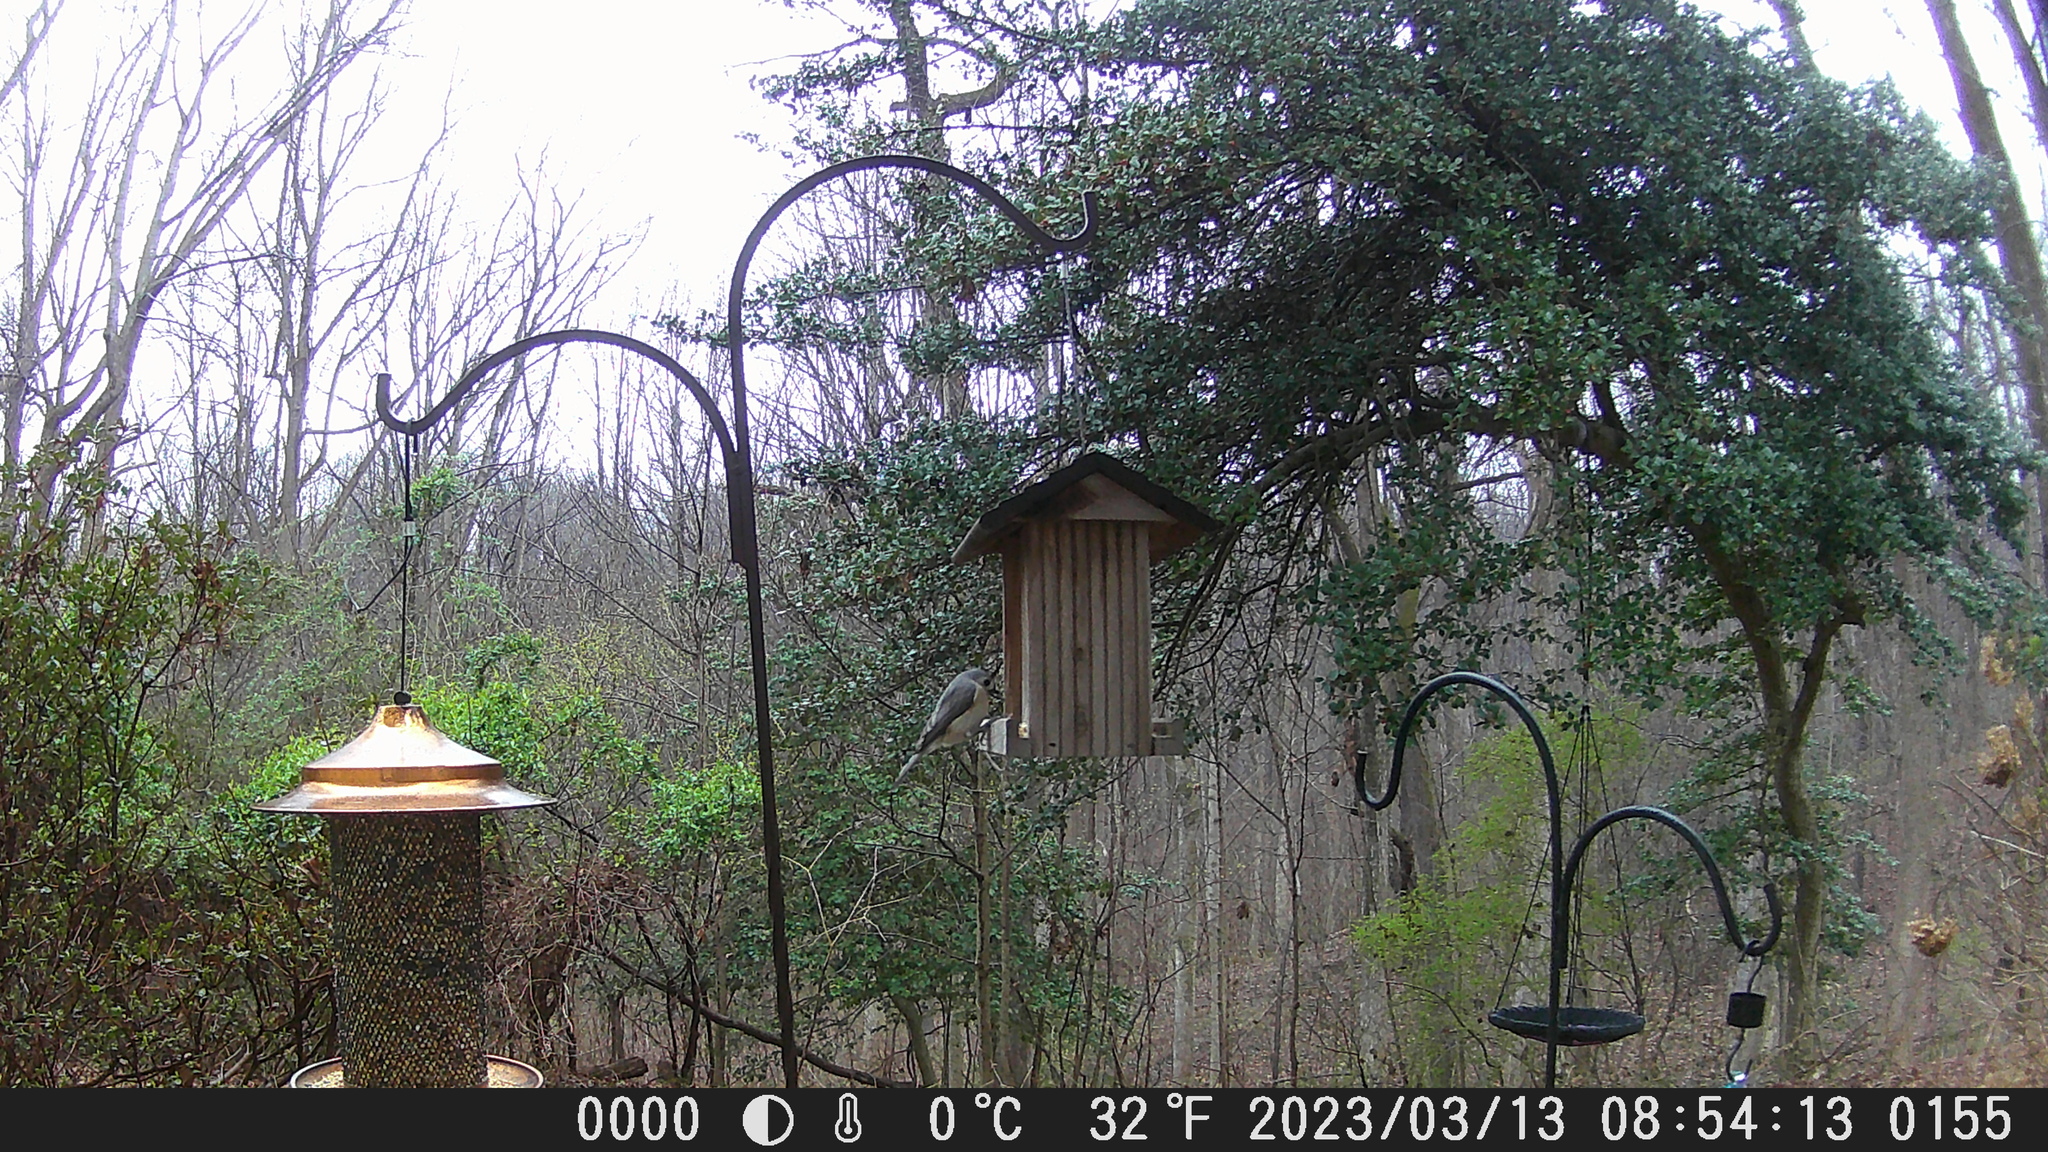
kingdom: Animalia
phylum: Chordata
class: Aves
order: Passeriformes
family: Paridae
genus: Baeolophus
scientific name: Baeolophus bicolor
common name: Tufted titmouse
